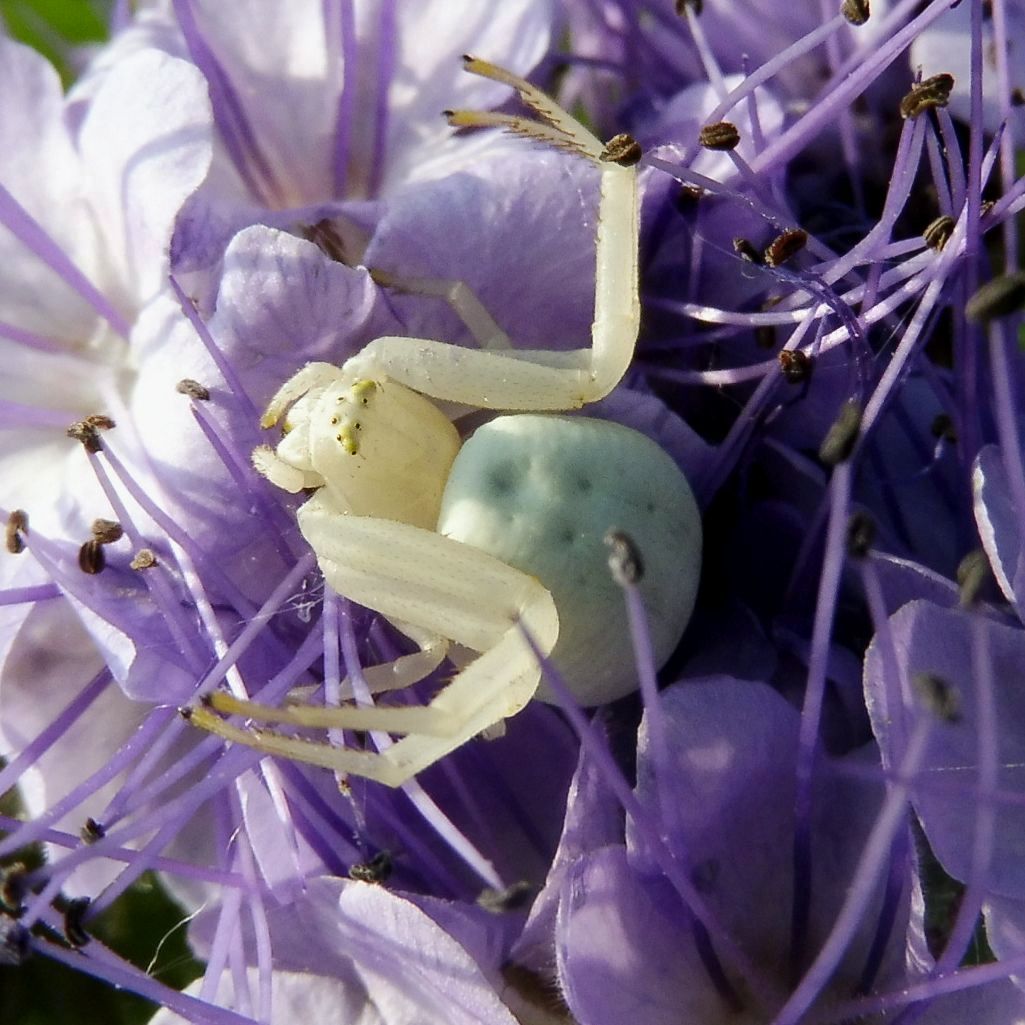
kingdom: Animalia
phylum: Arthropoda
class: Arachnida
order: Araneae
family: Thomisidae
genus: Misumena
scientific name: Misumena vatia
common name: Goldenrod crab spider
